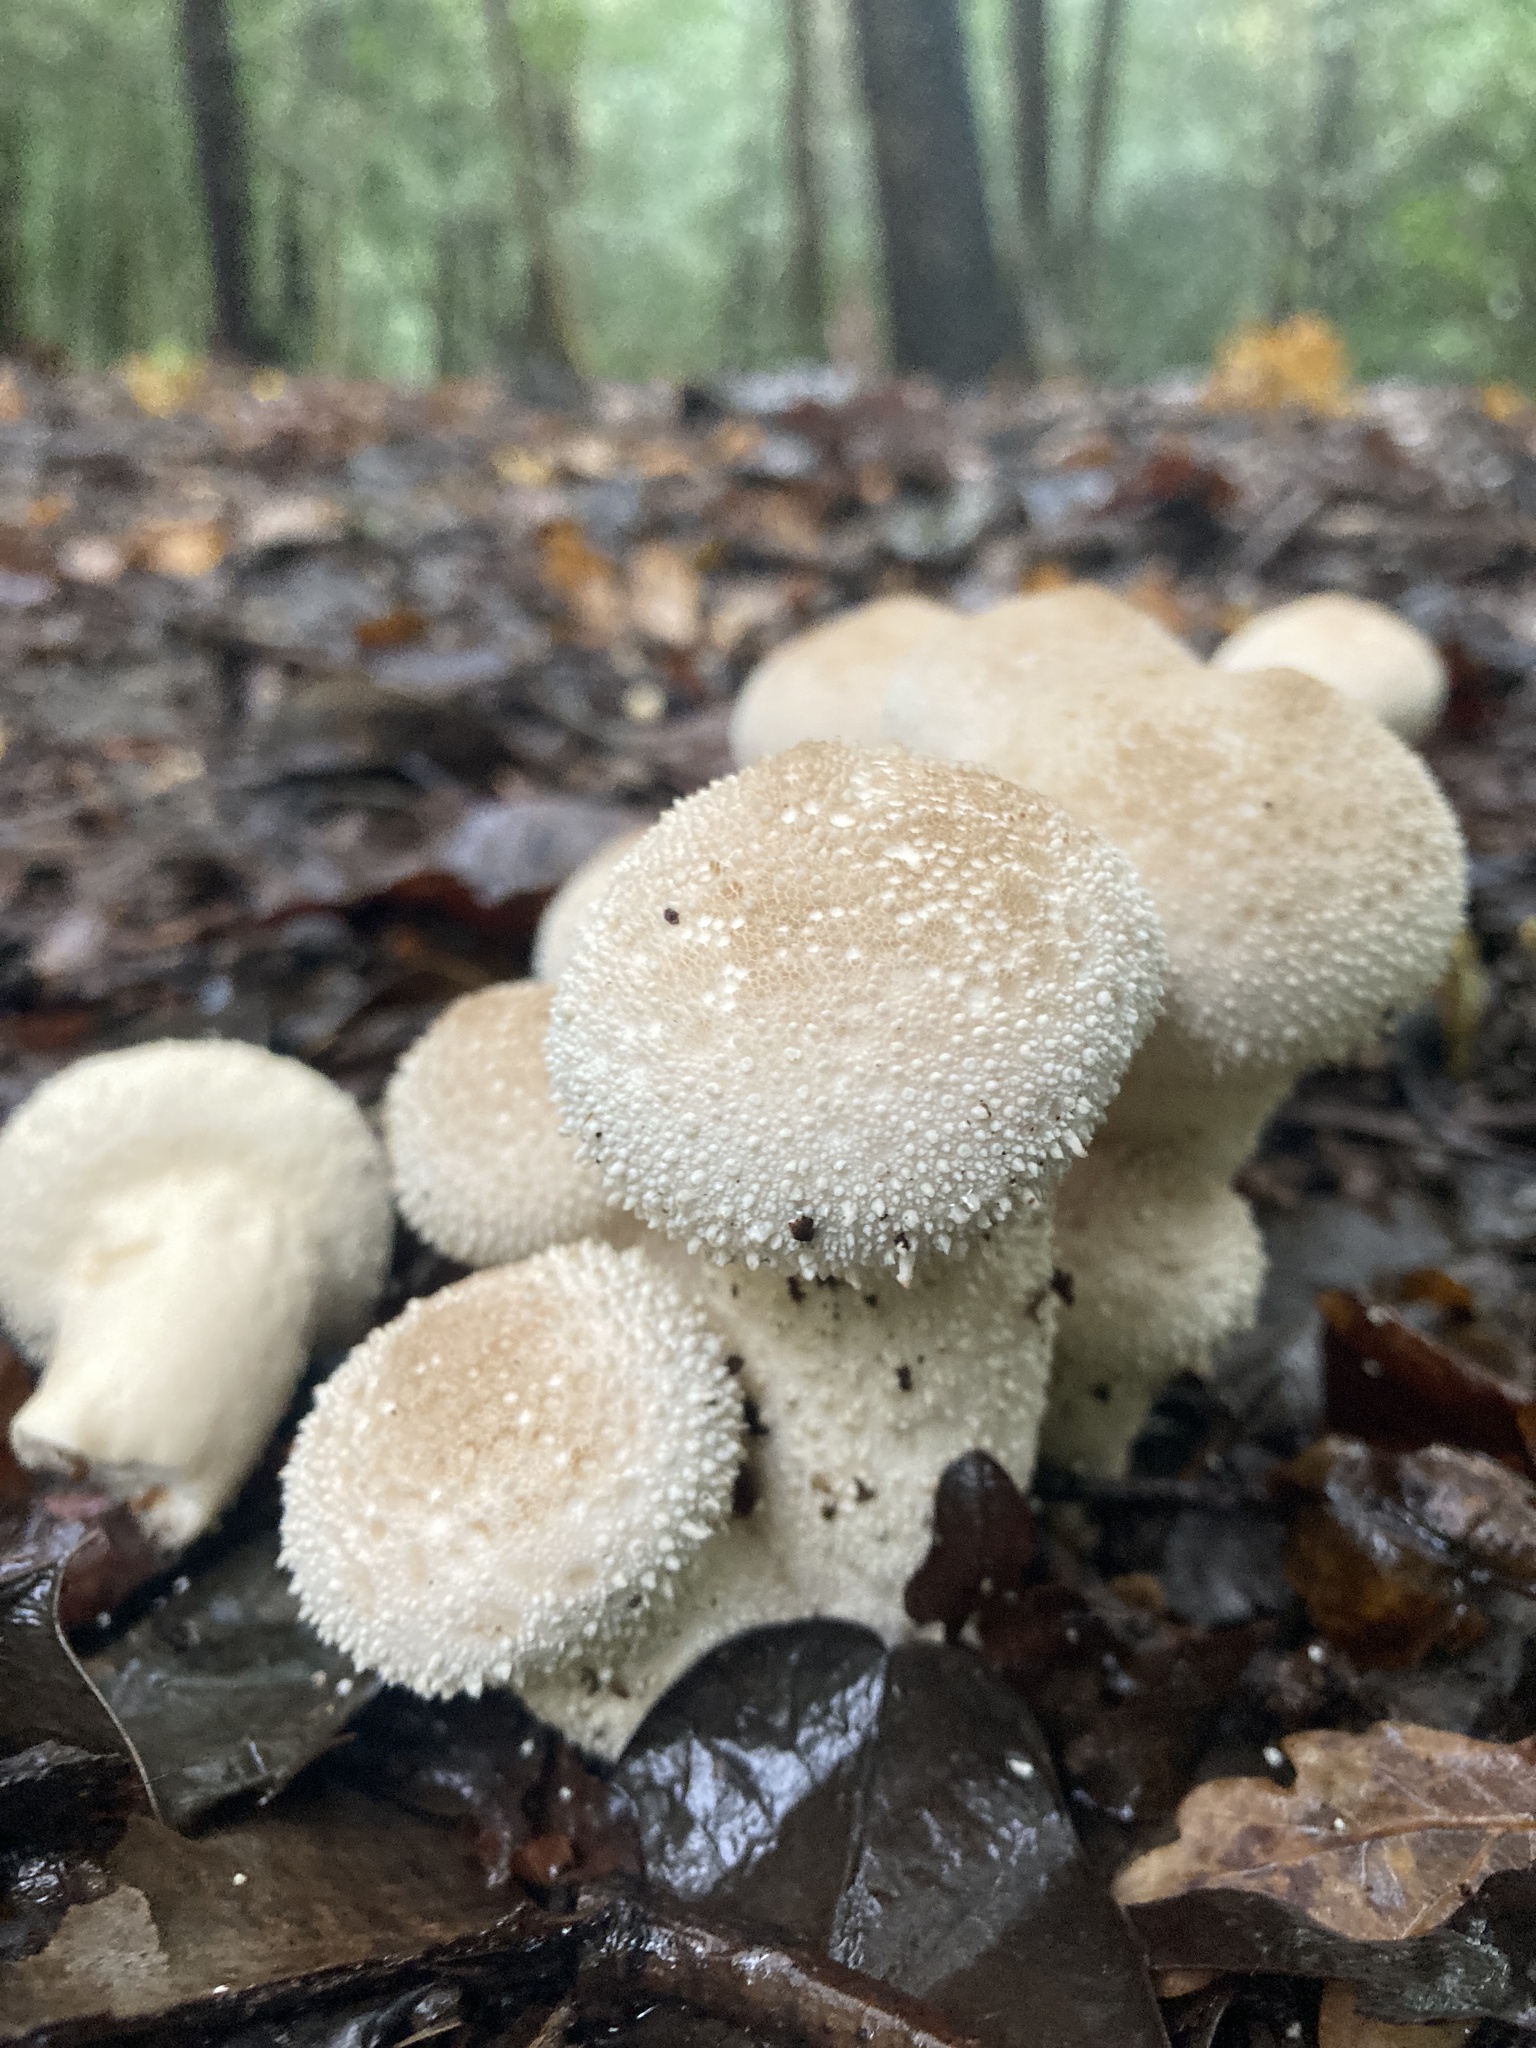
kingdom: Fungi
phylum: Basidiomycota
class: Agaricomycetes
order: Agaricales
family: Lycoperdaceae
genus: Lycoperdon
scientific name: Lycoperdon perlatum
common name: Common puffball
